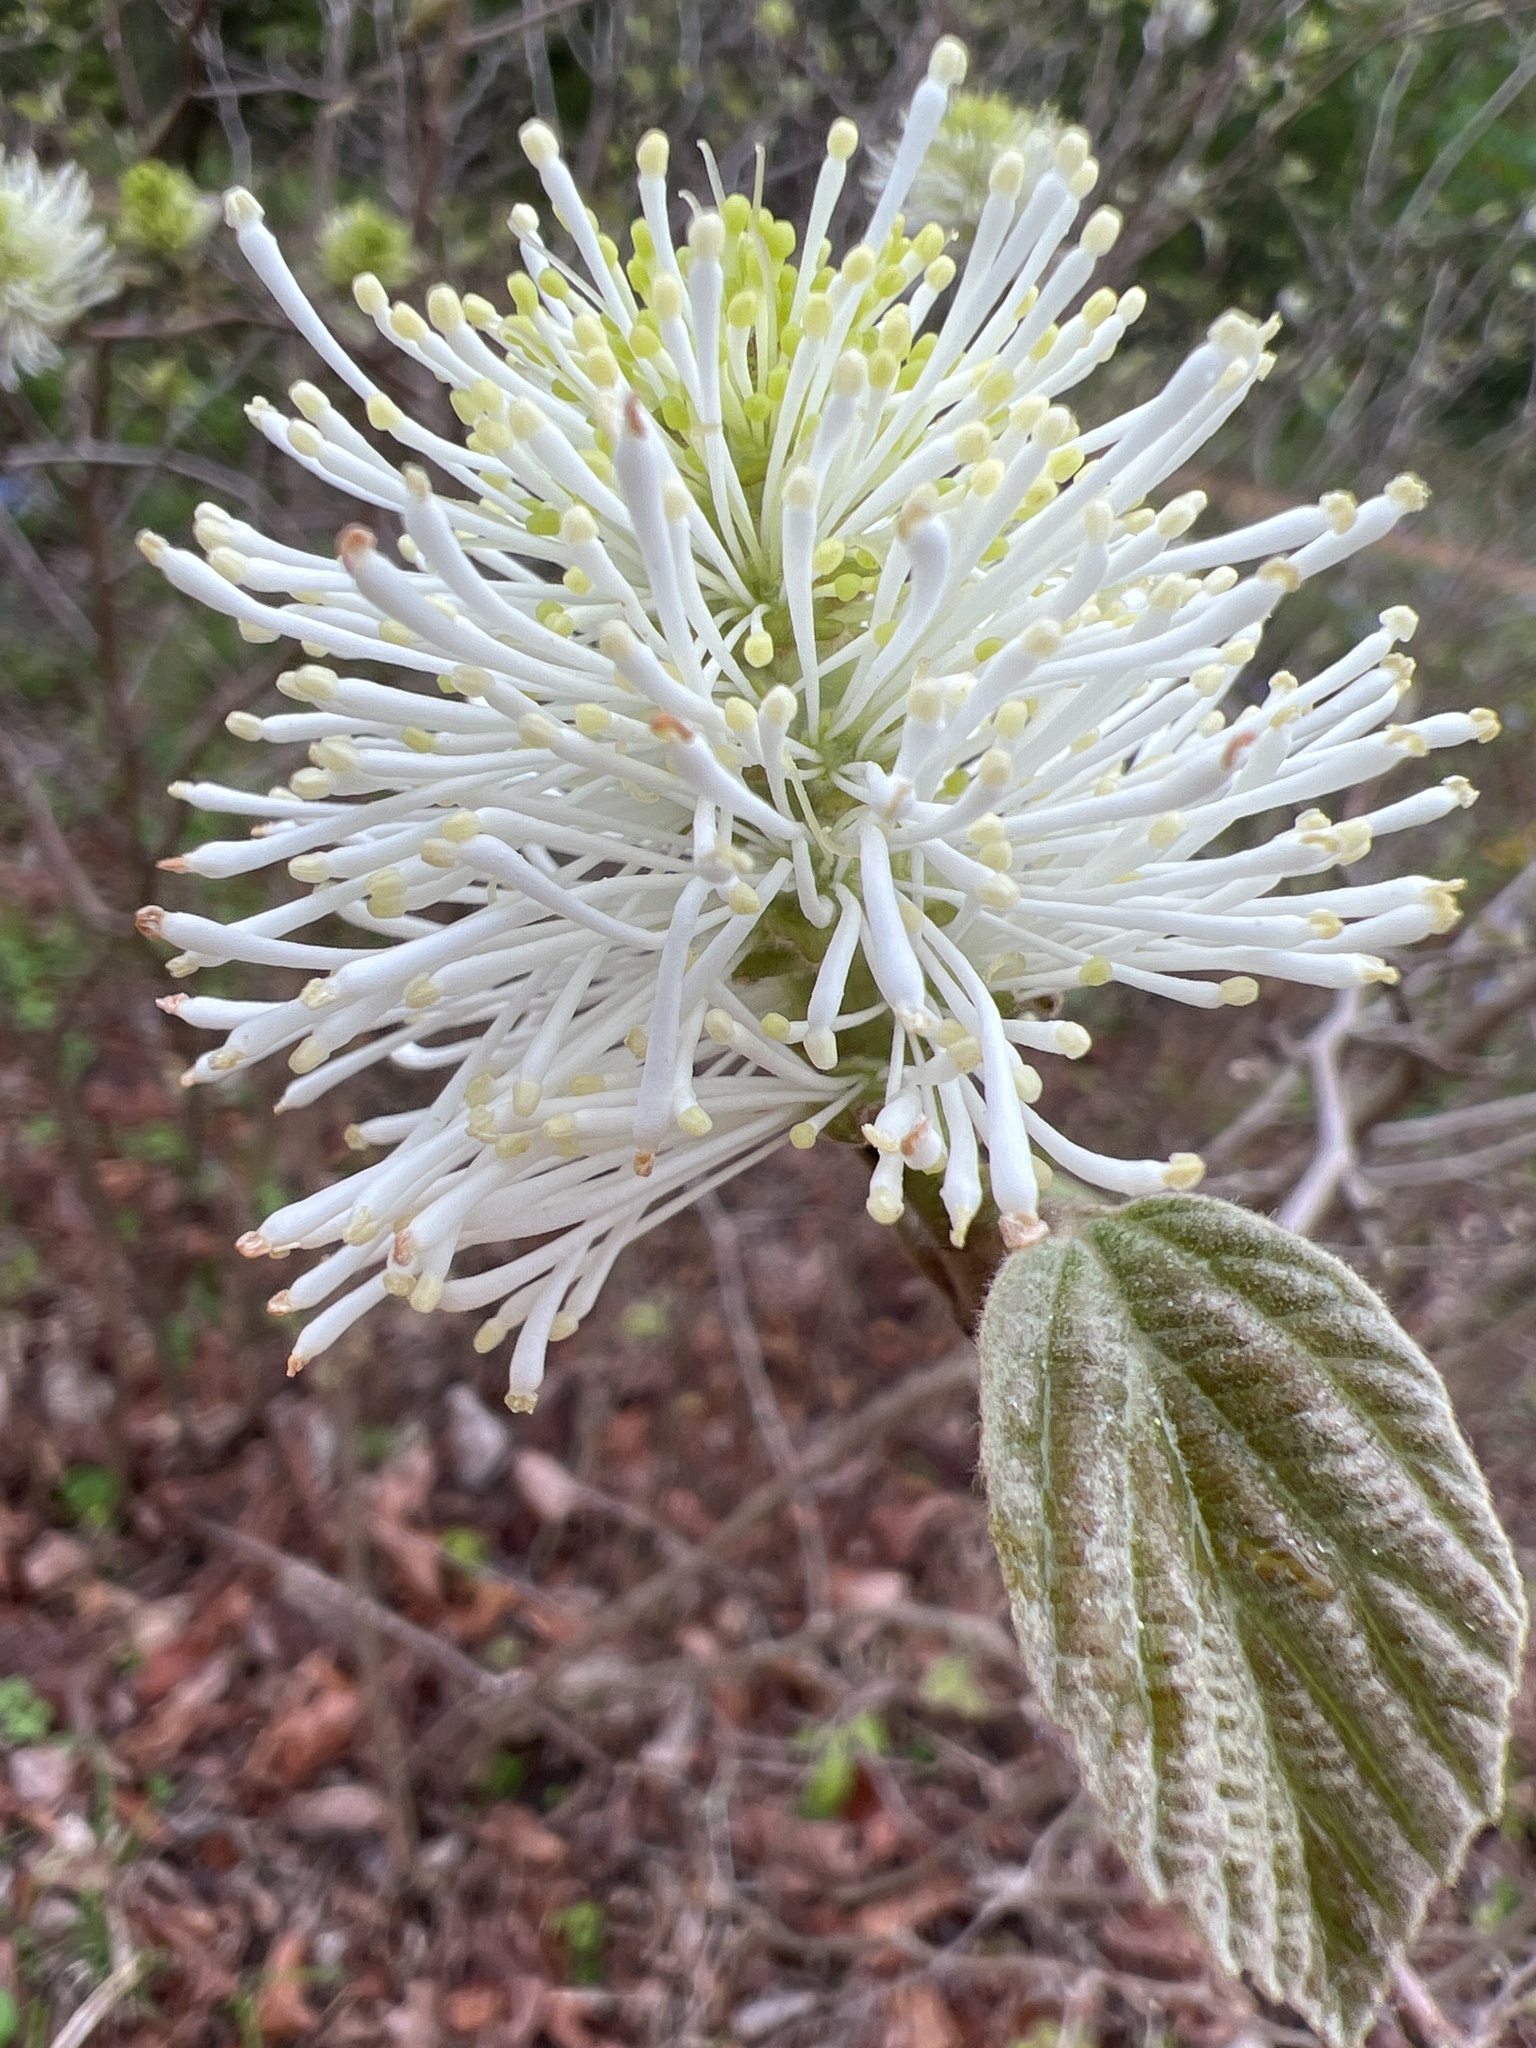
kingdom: Plantae
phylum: Tracheophyta
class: Magnoliopsida
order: Saxifragales
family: Hamamelidaceae
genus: Fothergilla
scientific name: Fothergilla latifolia
